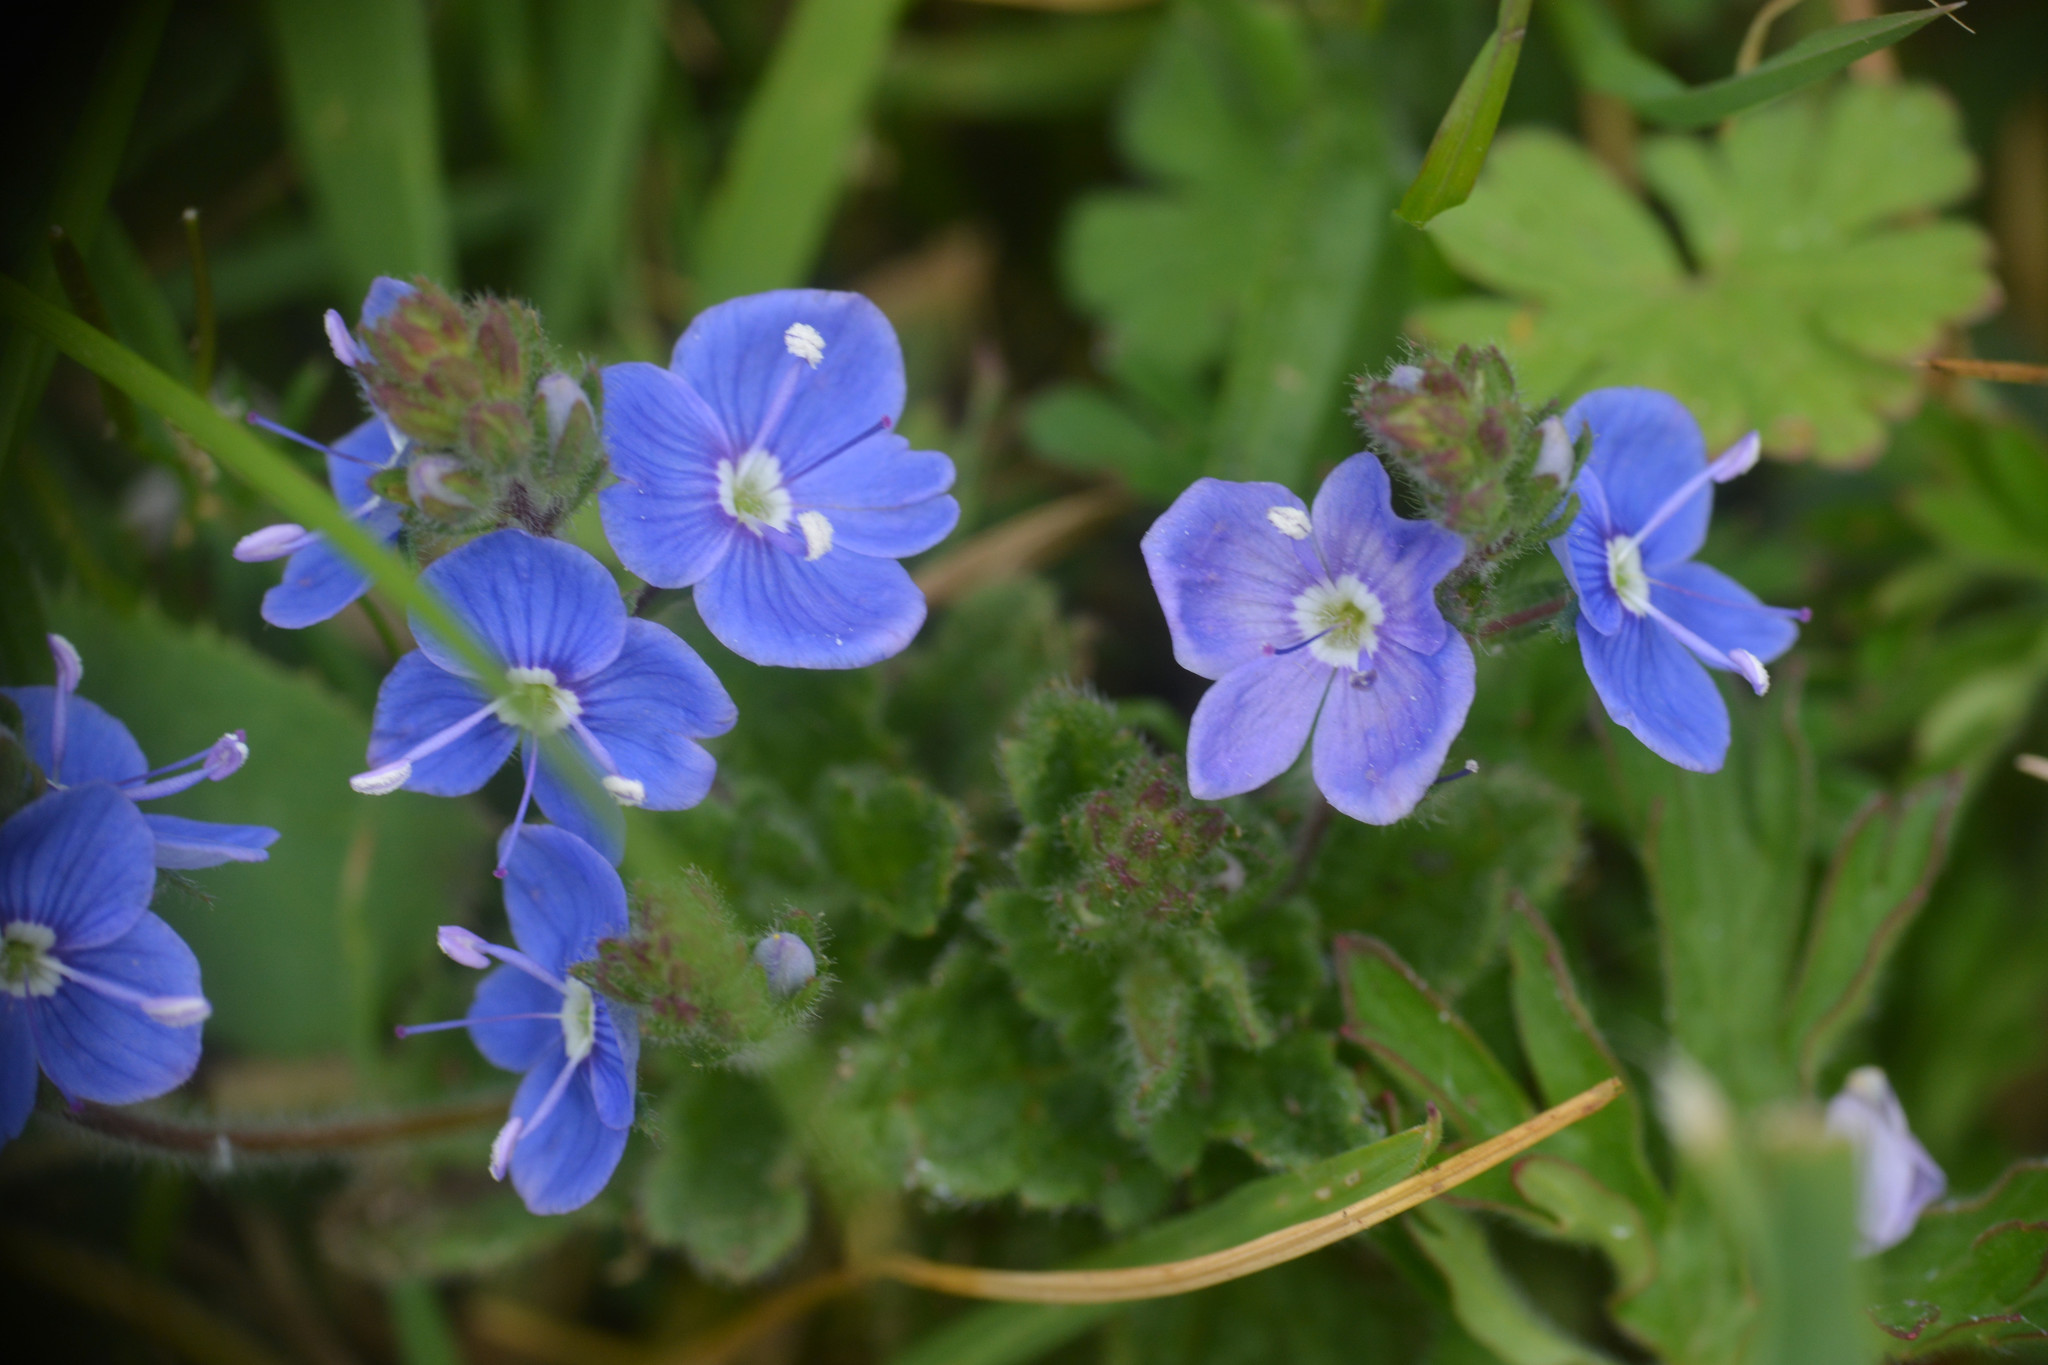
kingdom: Plantae
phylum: Tracheophyta
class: Magnoliopsida
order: Lamiales
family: Plantaginaceae
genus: Veronica
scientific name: Veronica chamaedrys
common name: Germander speedwell
